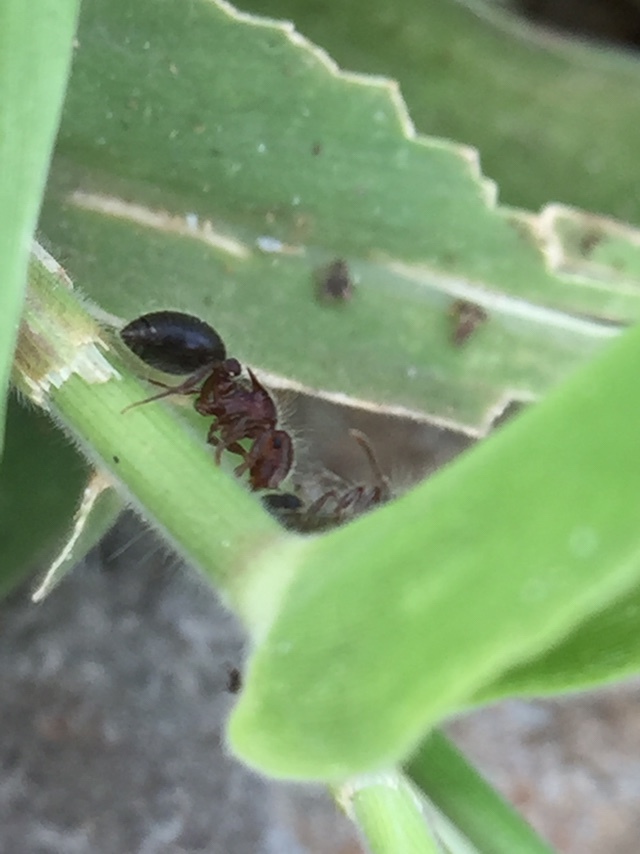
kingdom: Animalia
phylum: Arthropoda
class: Insecta
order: Hymenoptera
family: Formicidae
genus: Meranoplus
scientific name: Meranoplus bicolor
